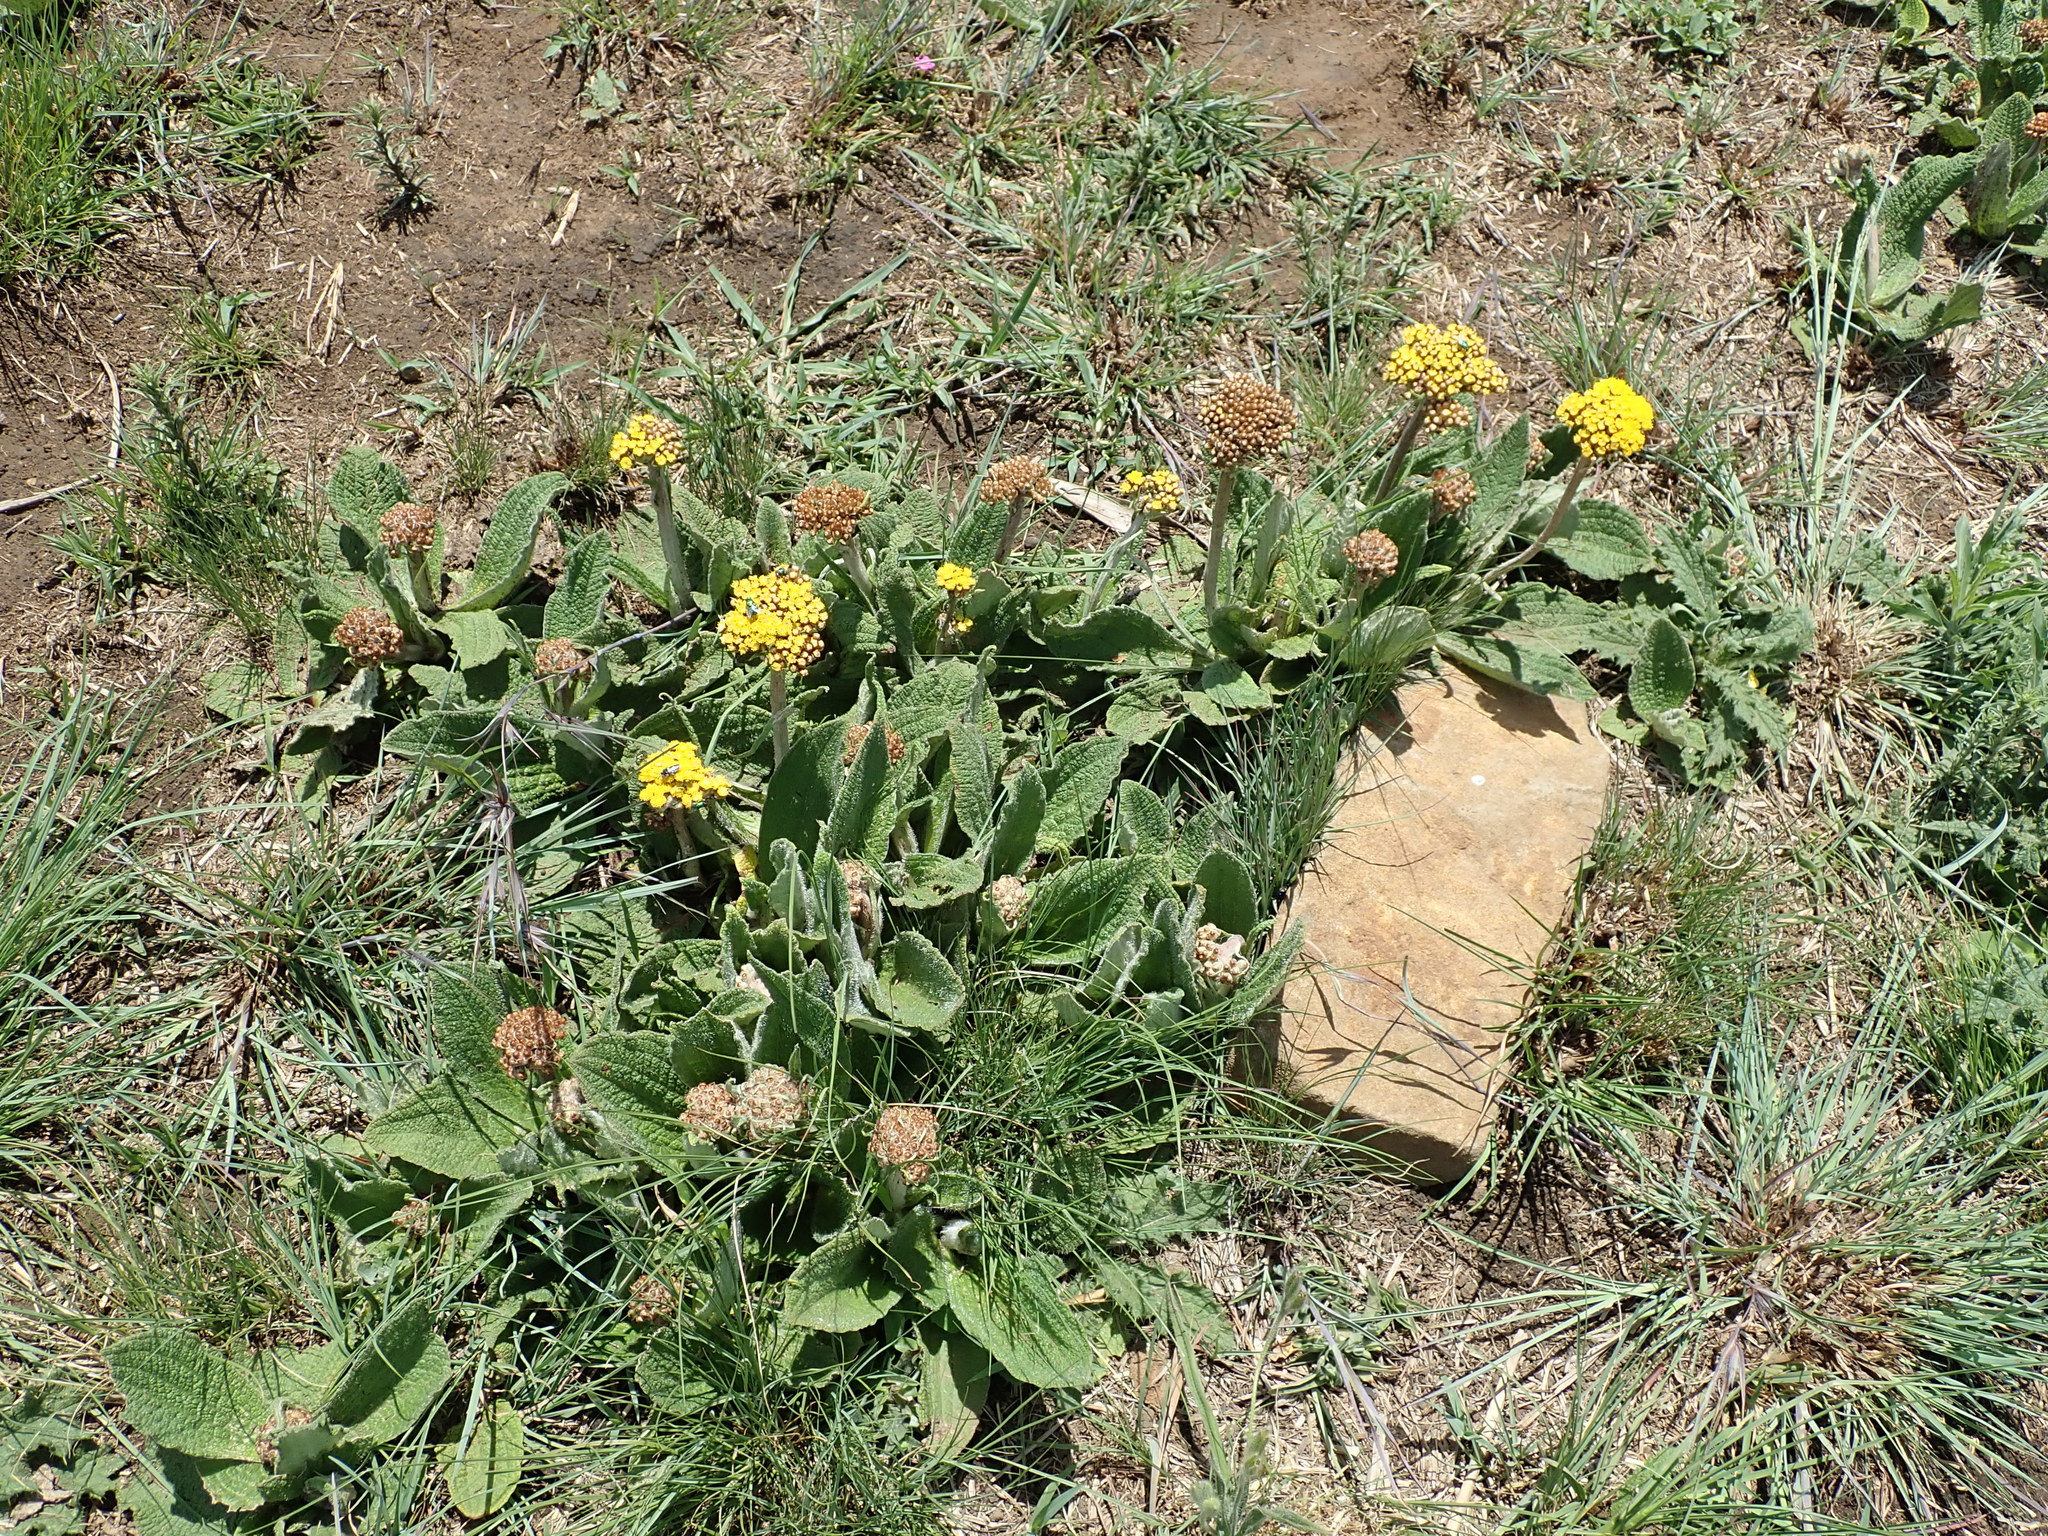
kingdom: Plantae
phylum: Tracheophyta
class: Magnoliopsida
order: Asterales
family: Asteraceae
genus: Helichrysum
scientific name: Helichrysum nudifolium
